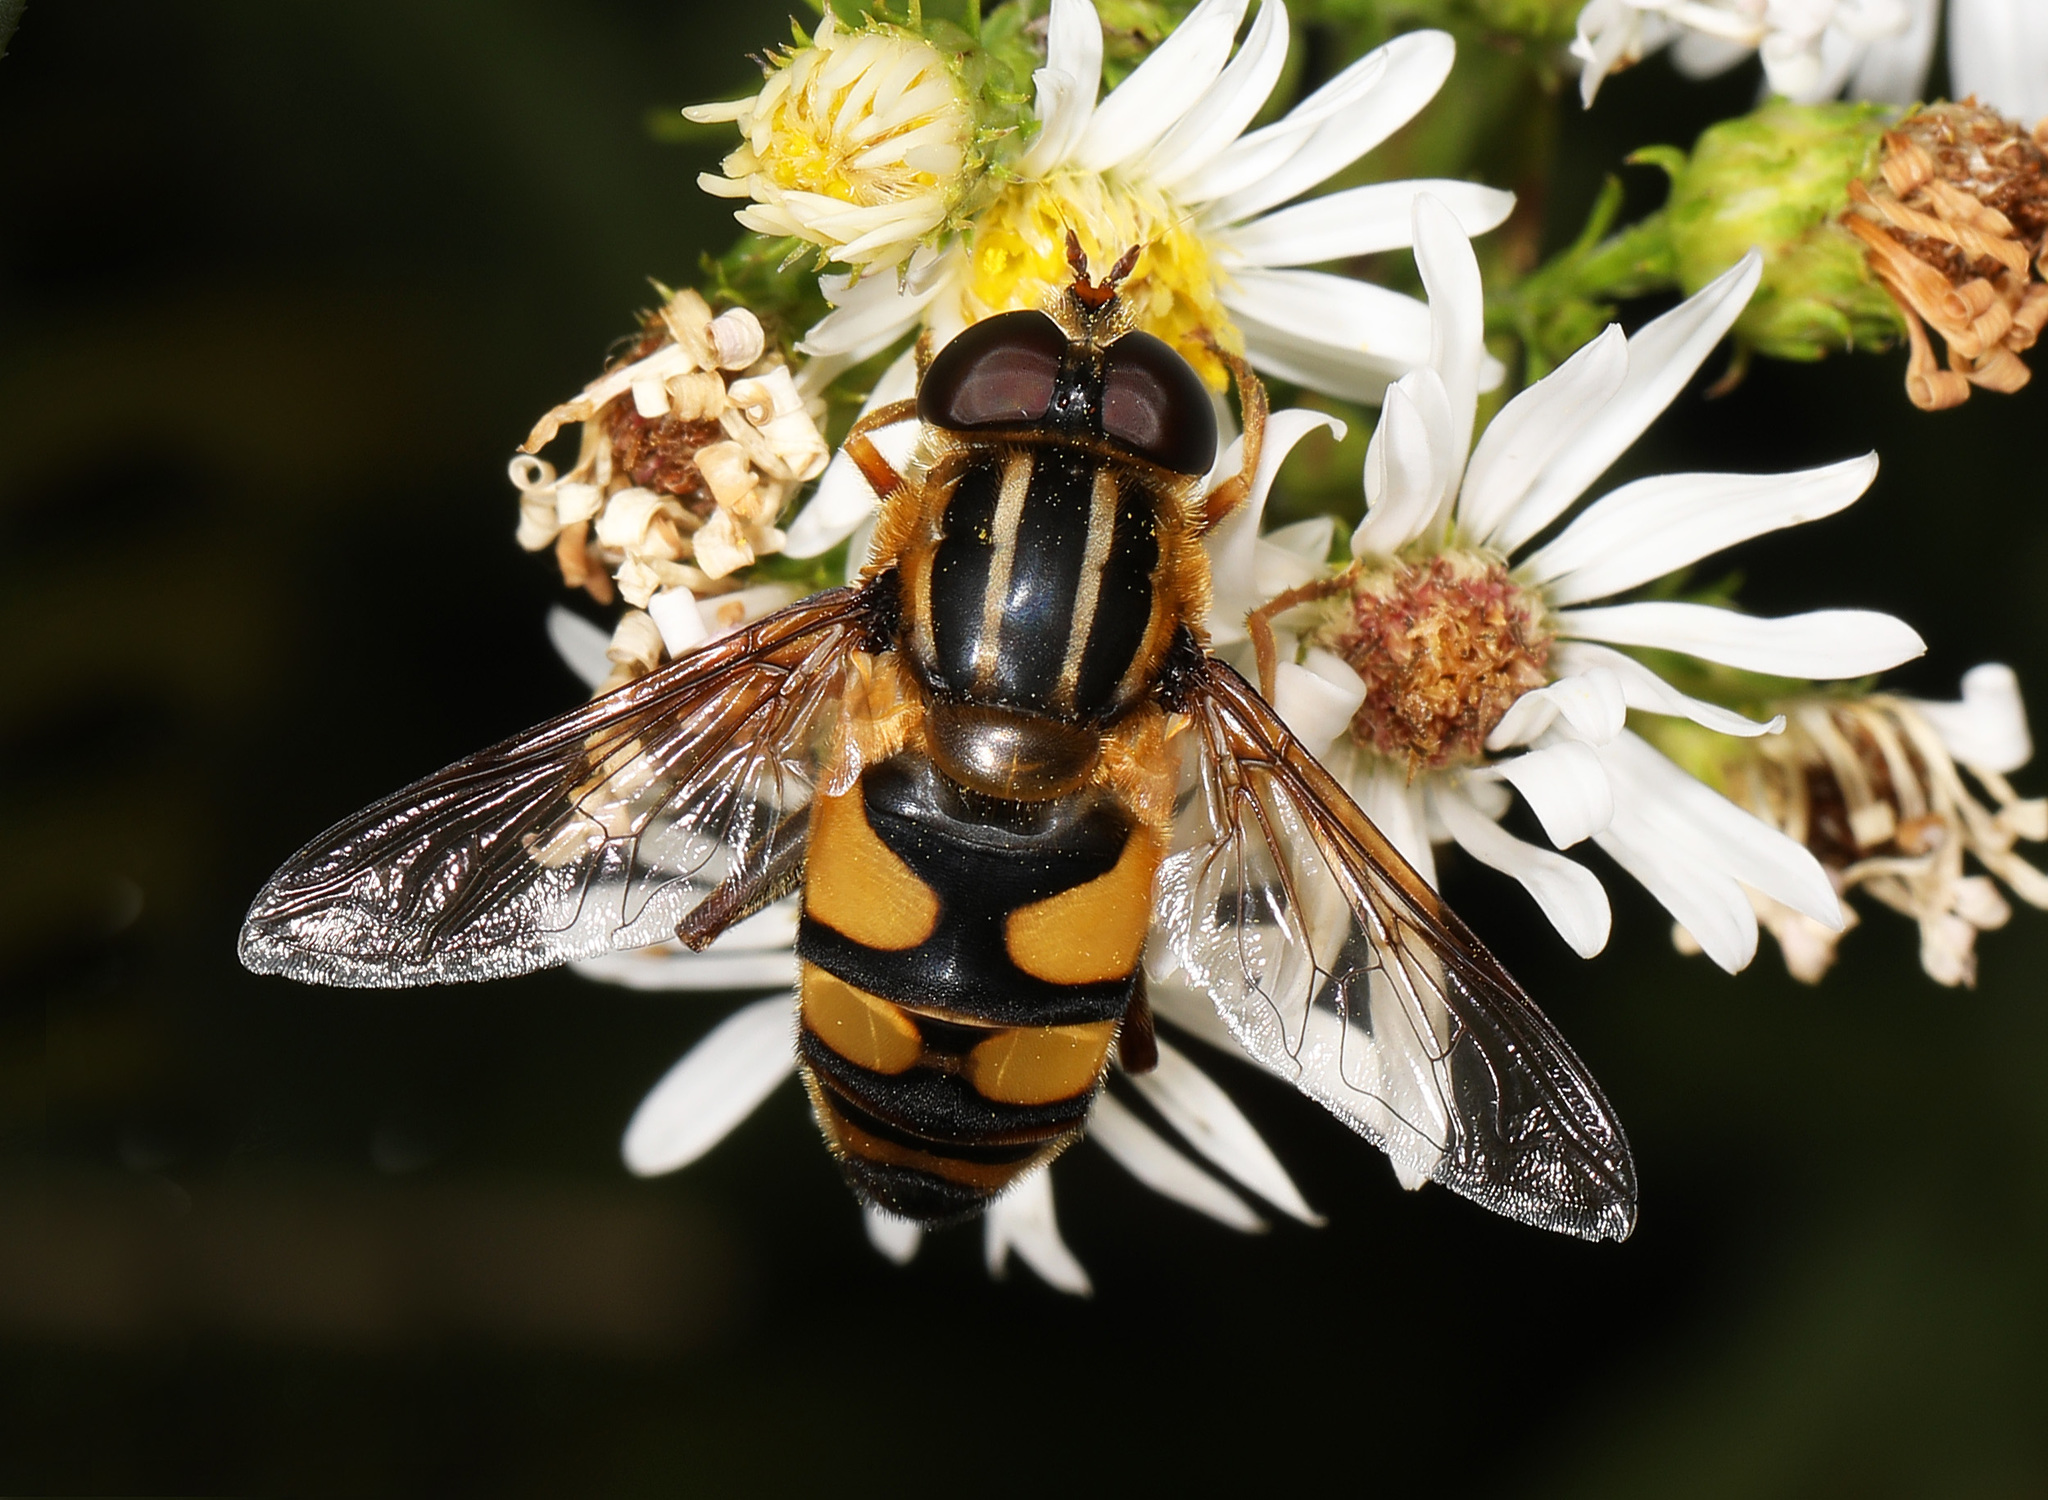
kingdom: Animalia
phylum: Arthropoda
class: Insecta
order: Diptera
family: Syrphidae
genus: Helophilus
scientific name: Helophilus fasciatus
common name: Narrow-headed marsh fly
